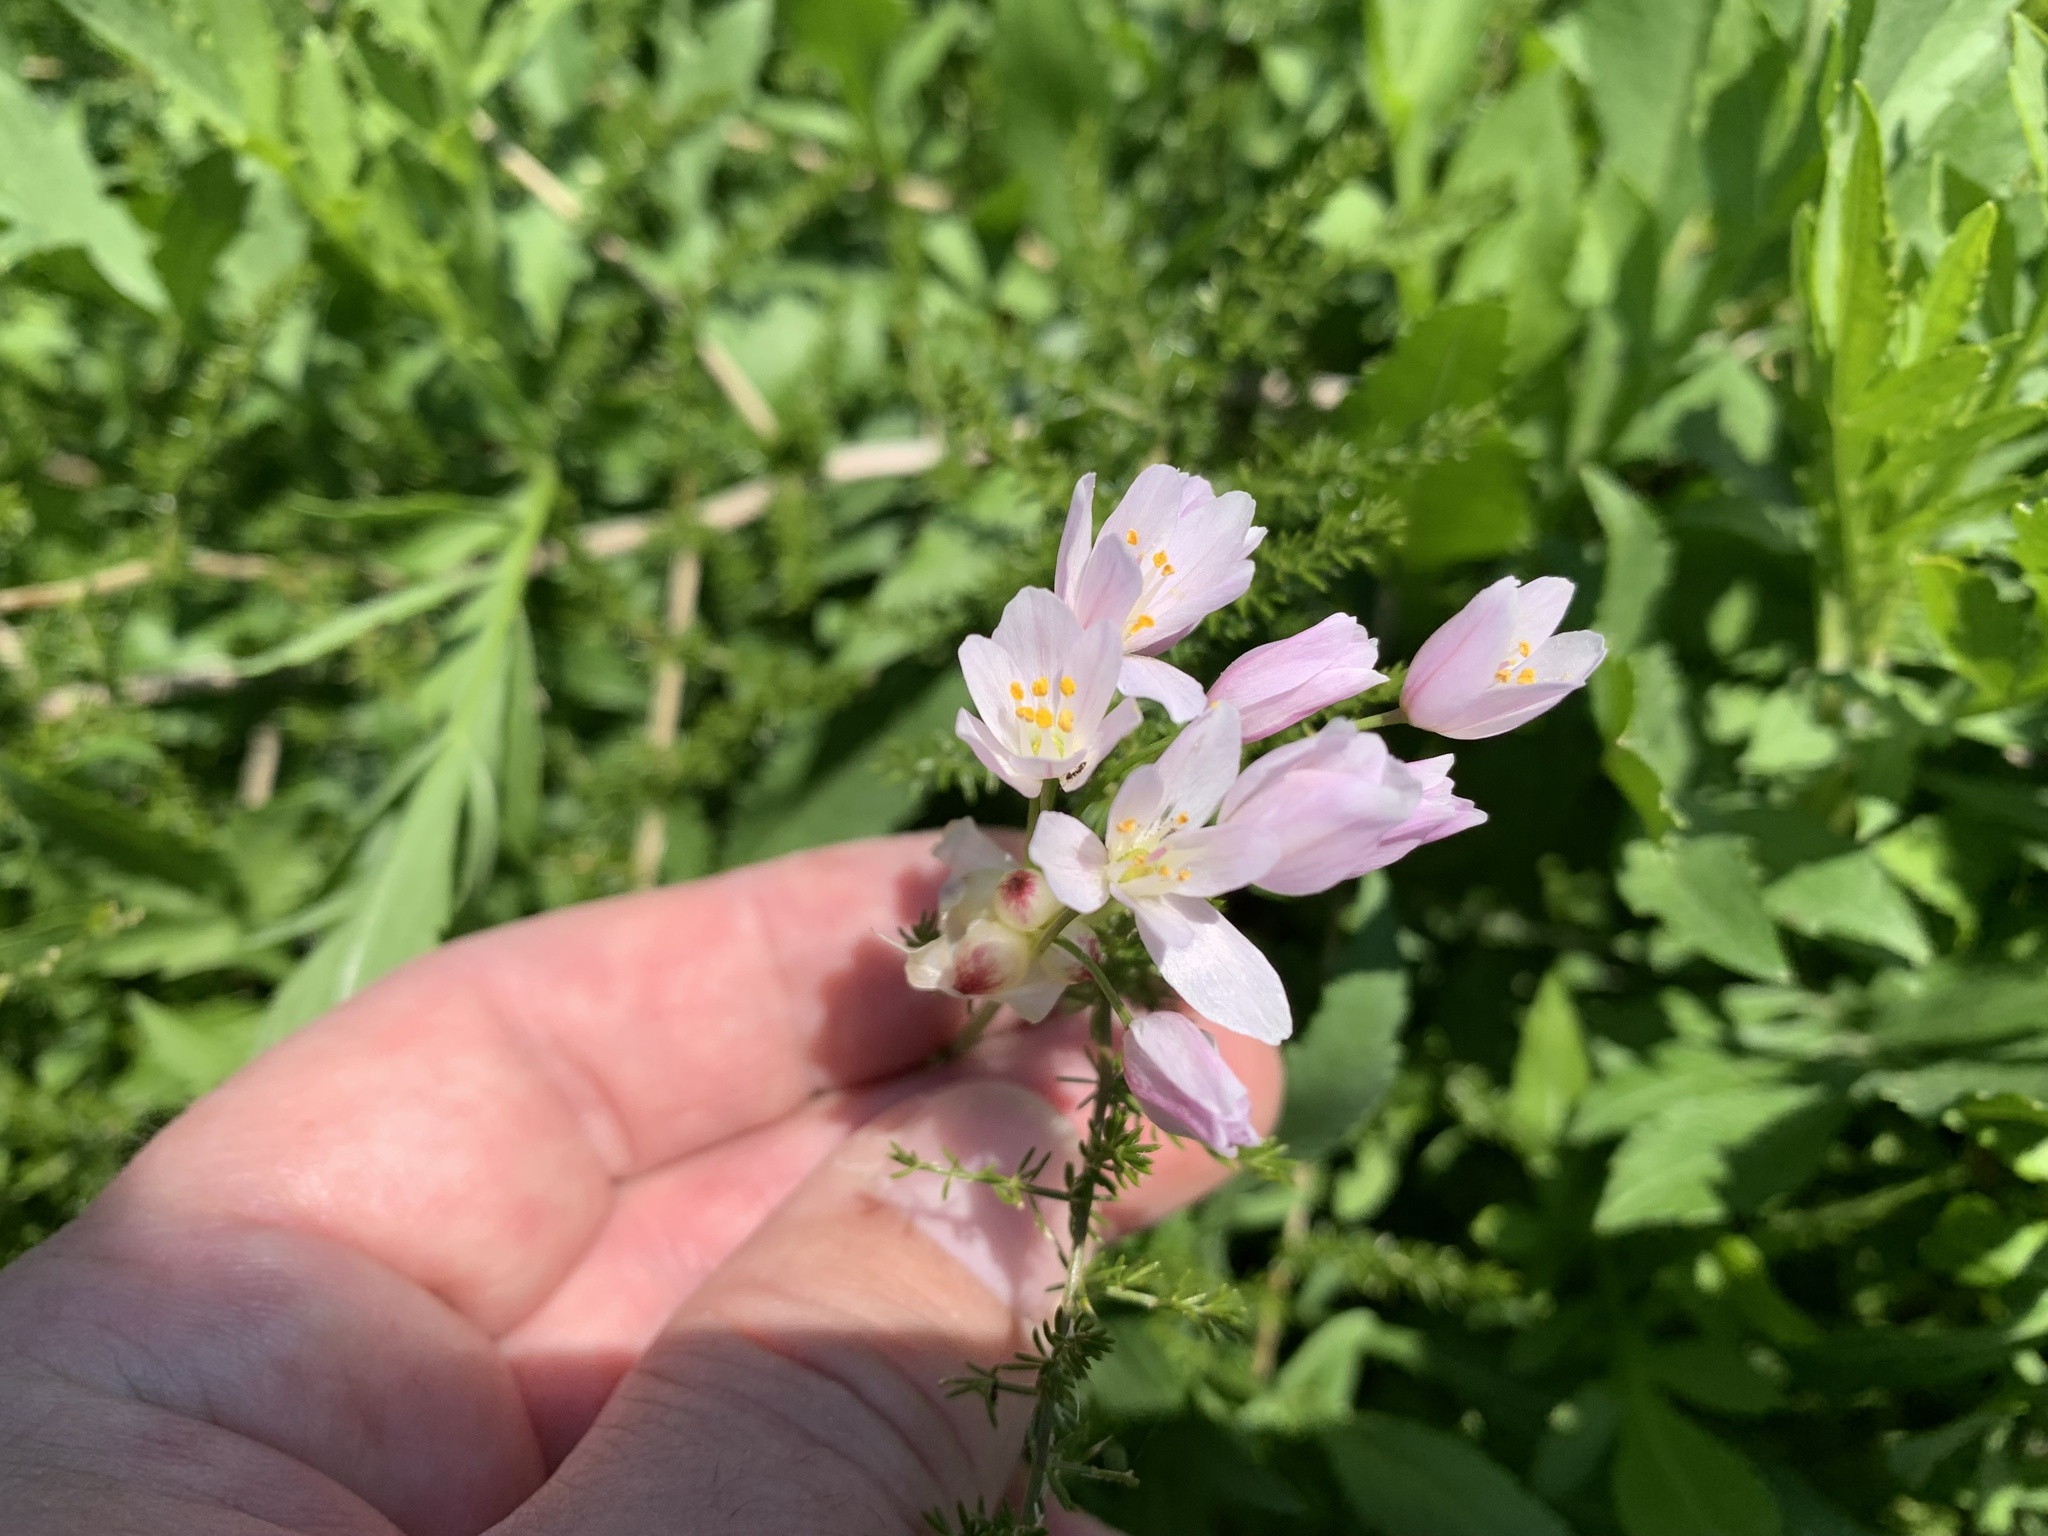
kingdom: Plantae
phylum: Tracheophyta
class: Liliopsida
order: Asparagales
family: Amaryllidaceae
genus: Allium
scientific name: Allium roseum
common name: Rosy garlic
